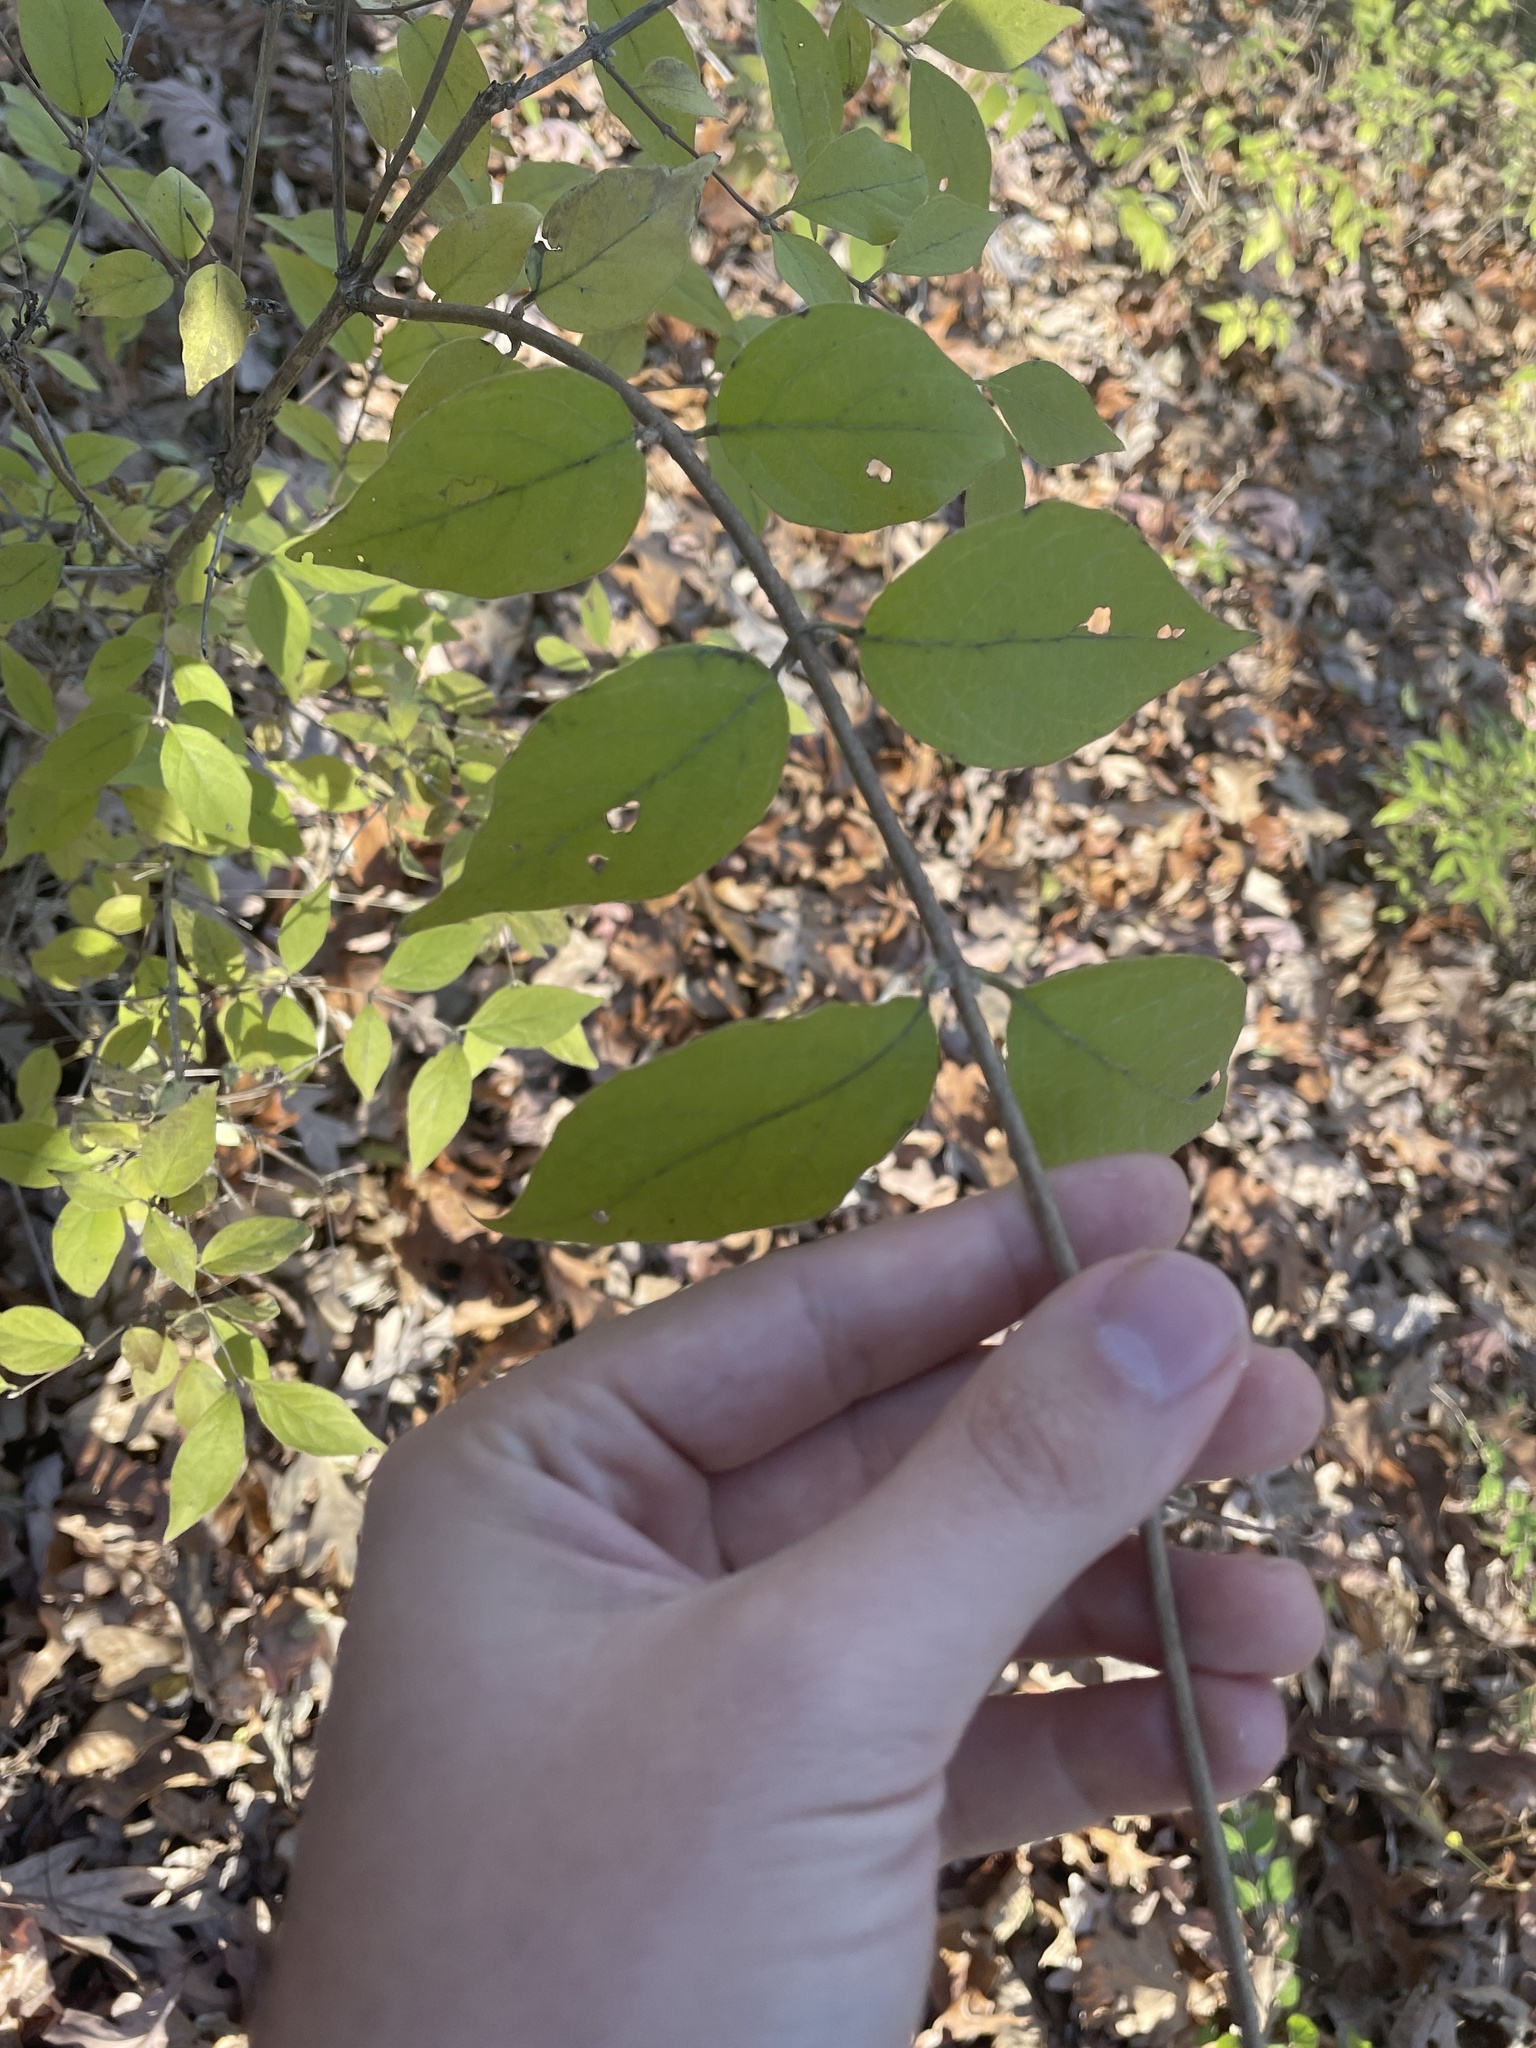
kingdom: Plantae
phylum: Tracheophyta
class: Magnoliopsida
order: Dipsacales
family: Caprifoliaceae
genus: Lonicera
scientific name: Lonicera maackii
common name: Amur honeysuckle
